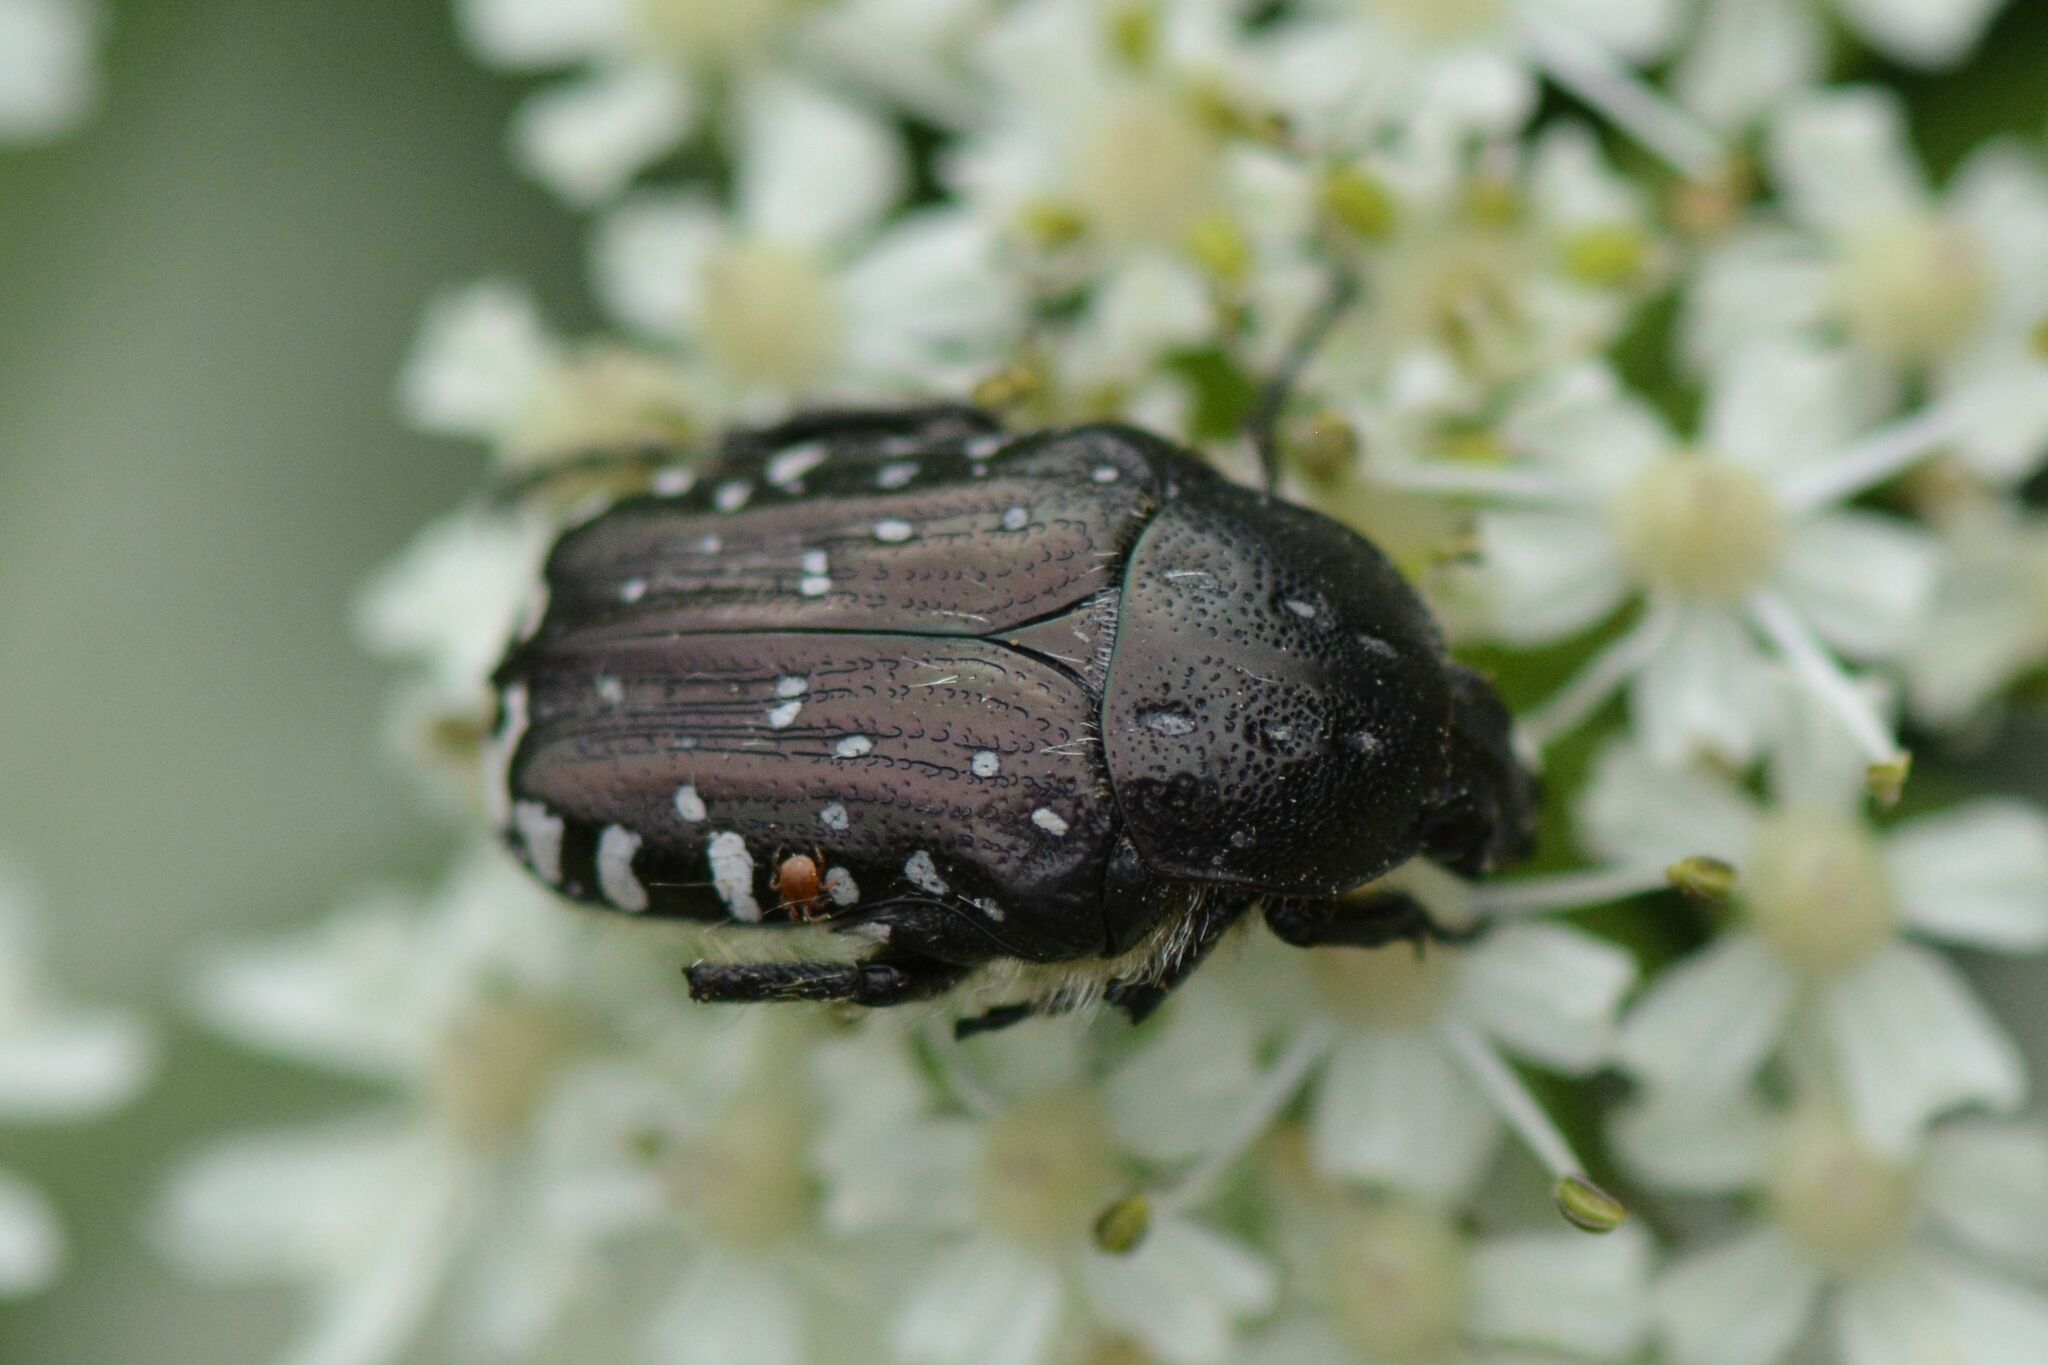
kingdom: Animalia
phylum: Arthropoda
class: Insecta
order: Coleoptera
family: Scarabaeidae
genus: Oxythyrea
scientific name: Oxythyrea funesta
